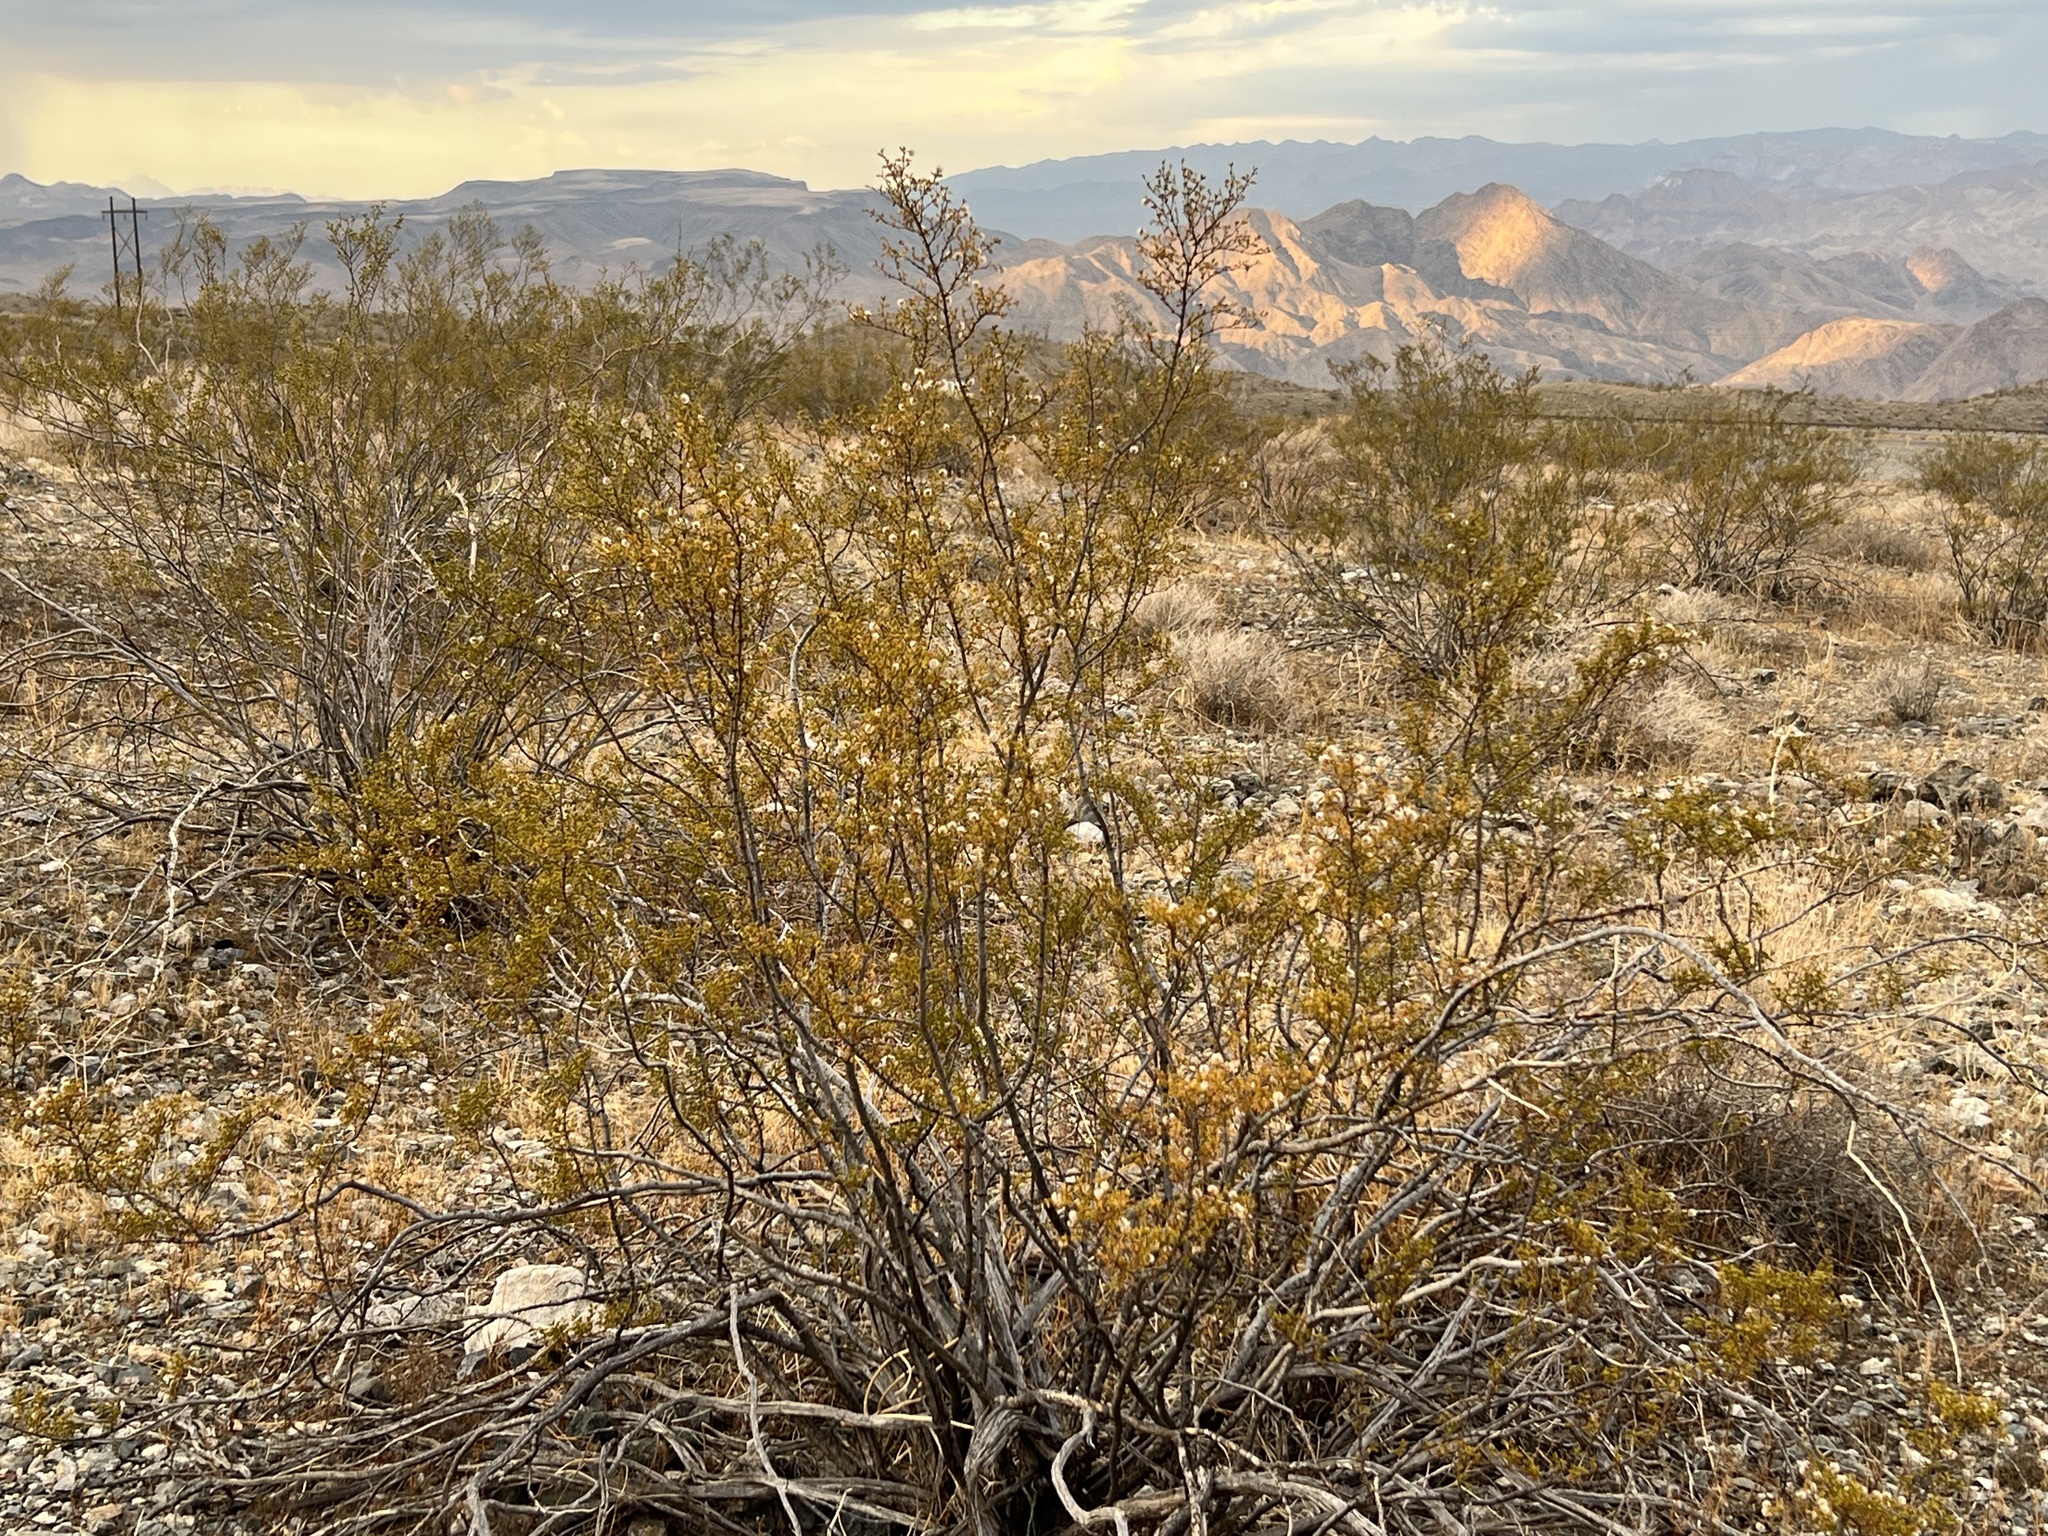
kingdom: Plantae
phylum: Tracheophyta
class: Magnoliopsida
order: Zygophyllales
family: Zygophyllaceae
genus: Larrea
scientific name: Larrea tridentata
